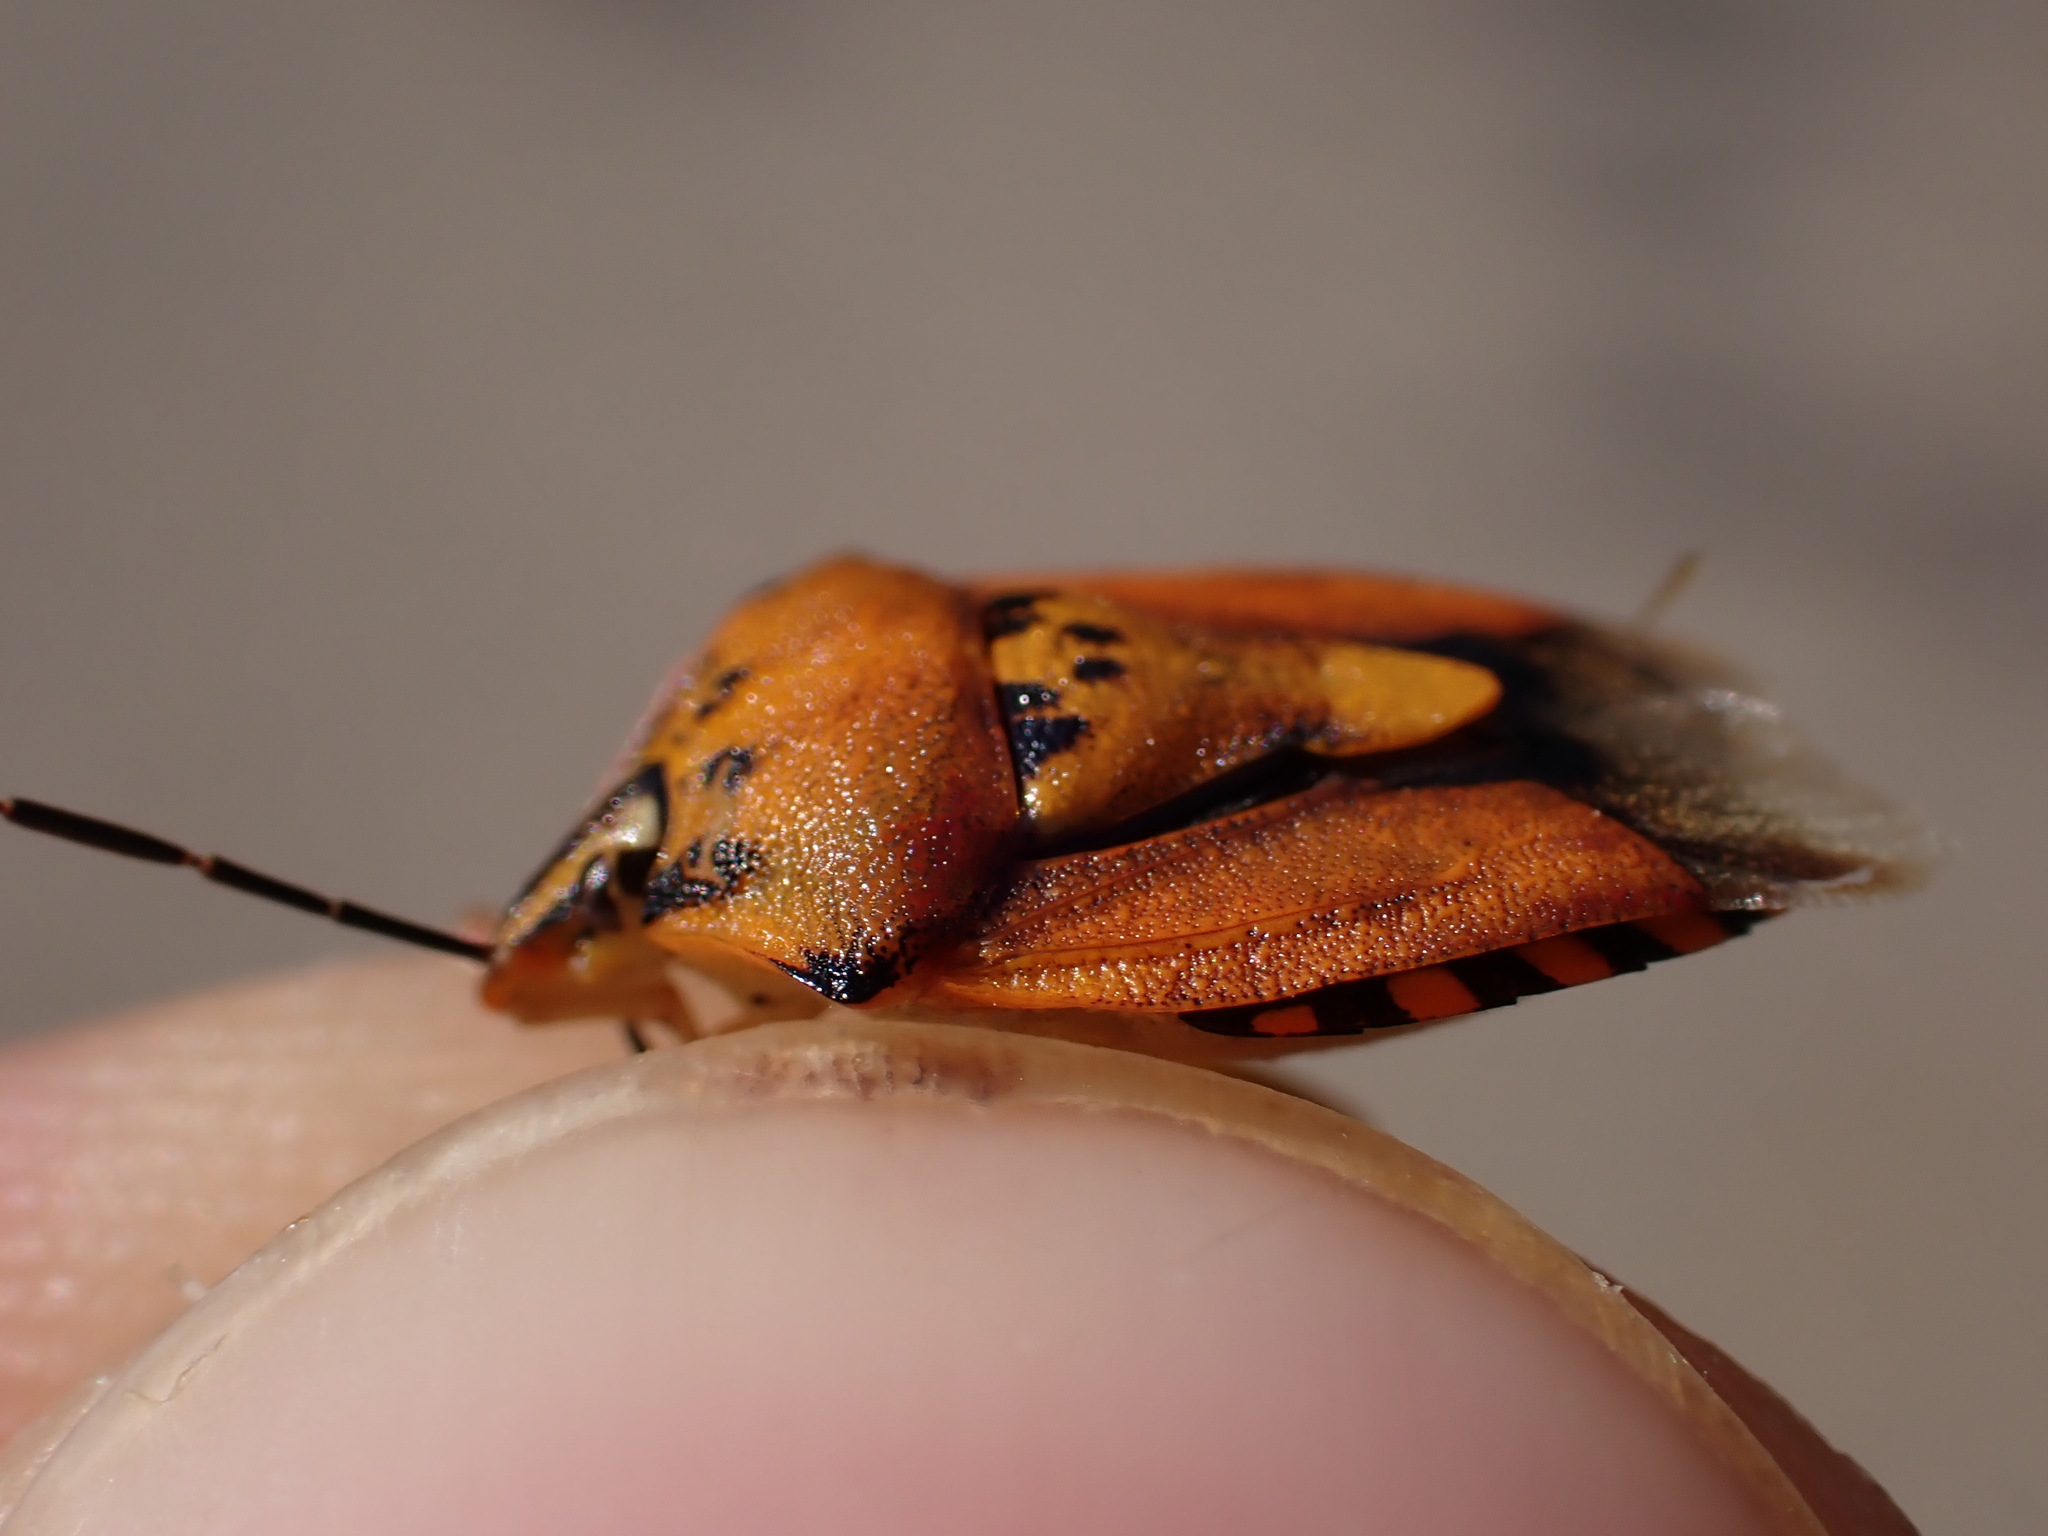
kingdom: Animalia
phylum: Arthropoda
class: Insecta
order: Hemiptera
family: Pentatomidae
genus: Carpocoris
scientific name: Carpocoris purpureipennis
